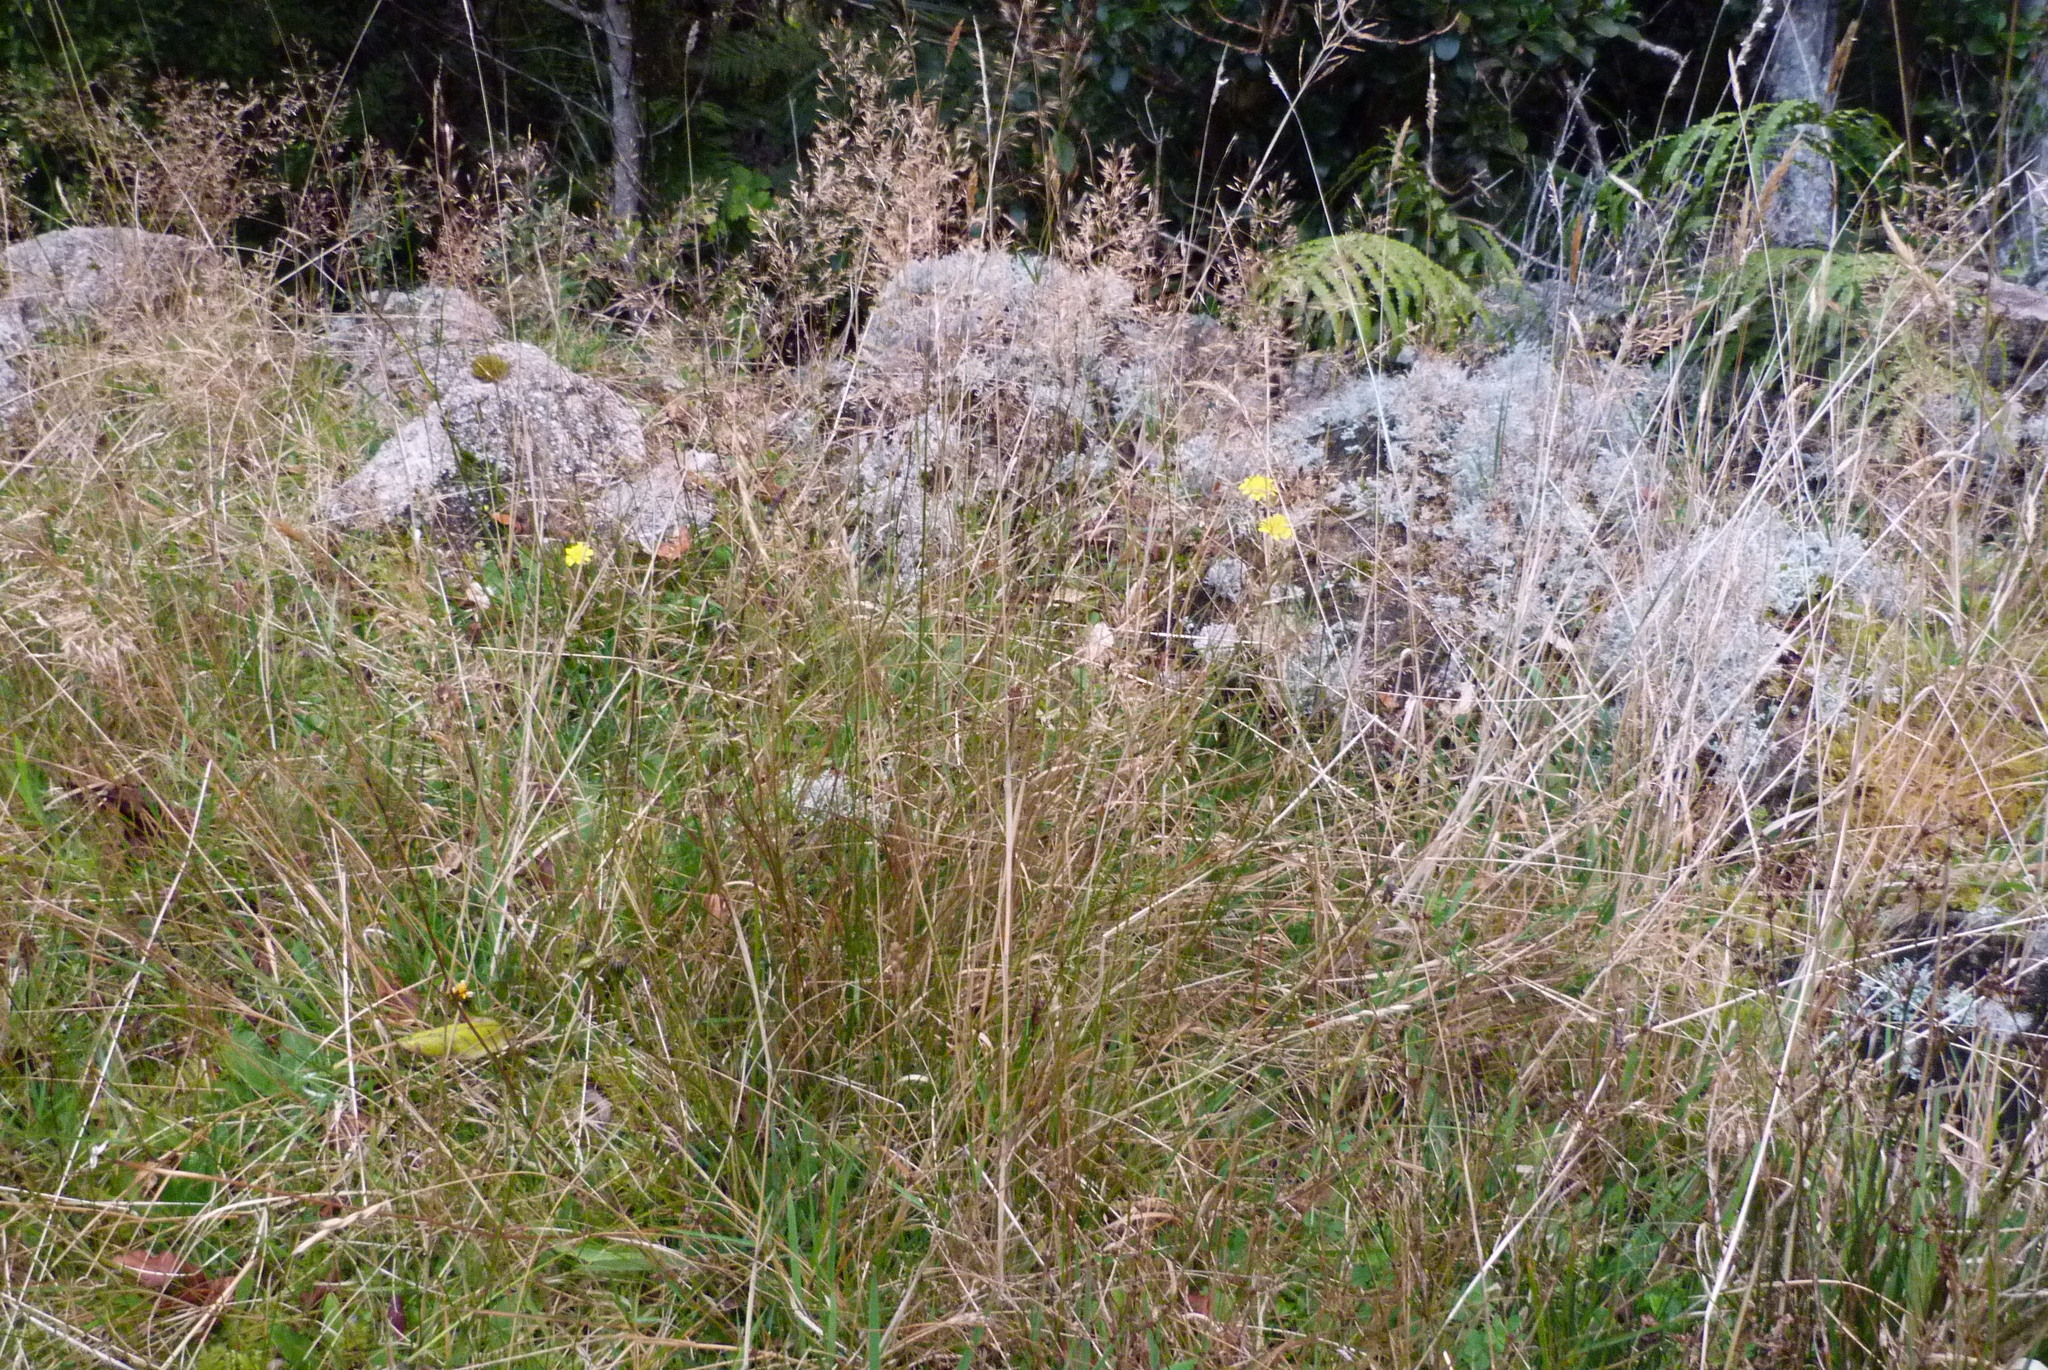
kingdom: Plantae
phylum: Tracheophyta
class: Liliopsida
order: Poales
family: Poaceae
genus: Agrostis
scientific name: Agrostis capillaris
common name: Colonial bentgrass
